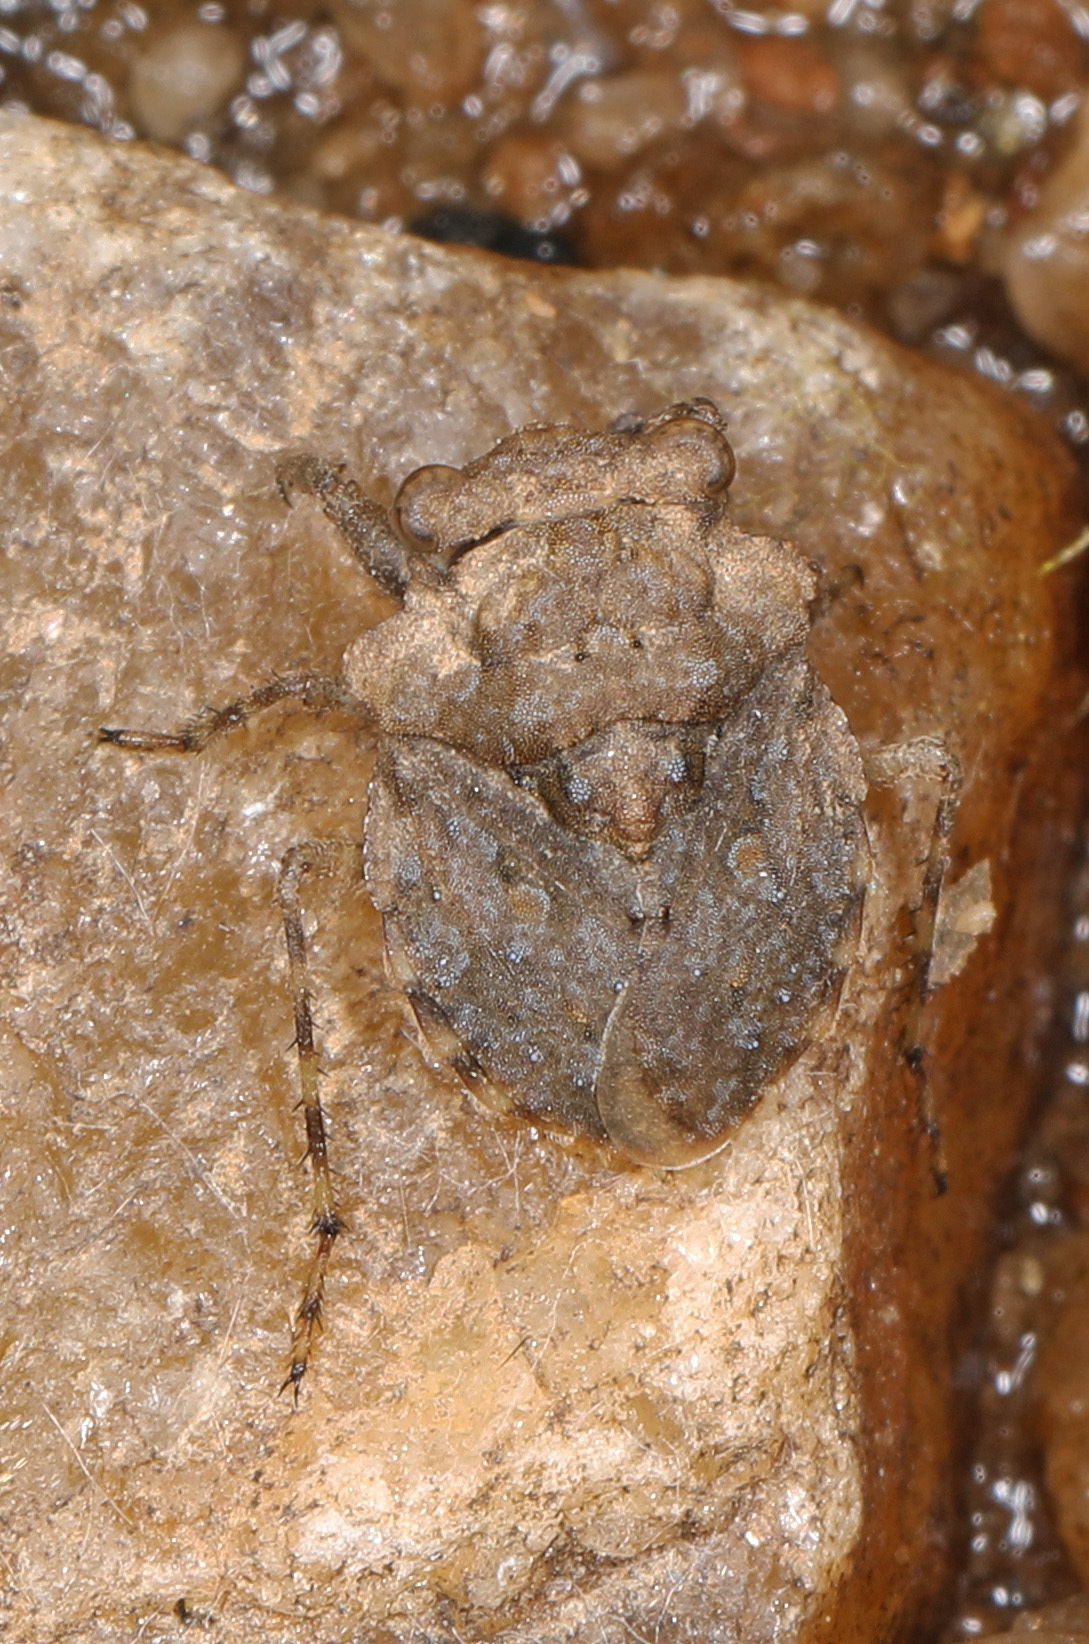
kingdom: Animalia
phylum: Arthropoda
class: Insecta
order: Hemiptera
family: Gelastocoridae
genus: Gelastocoris
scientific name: Gelastocoris oculatus
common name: Toad bug
